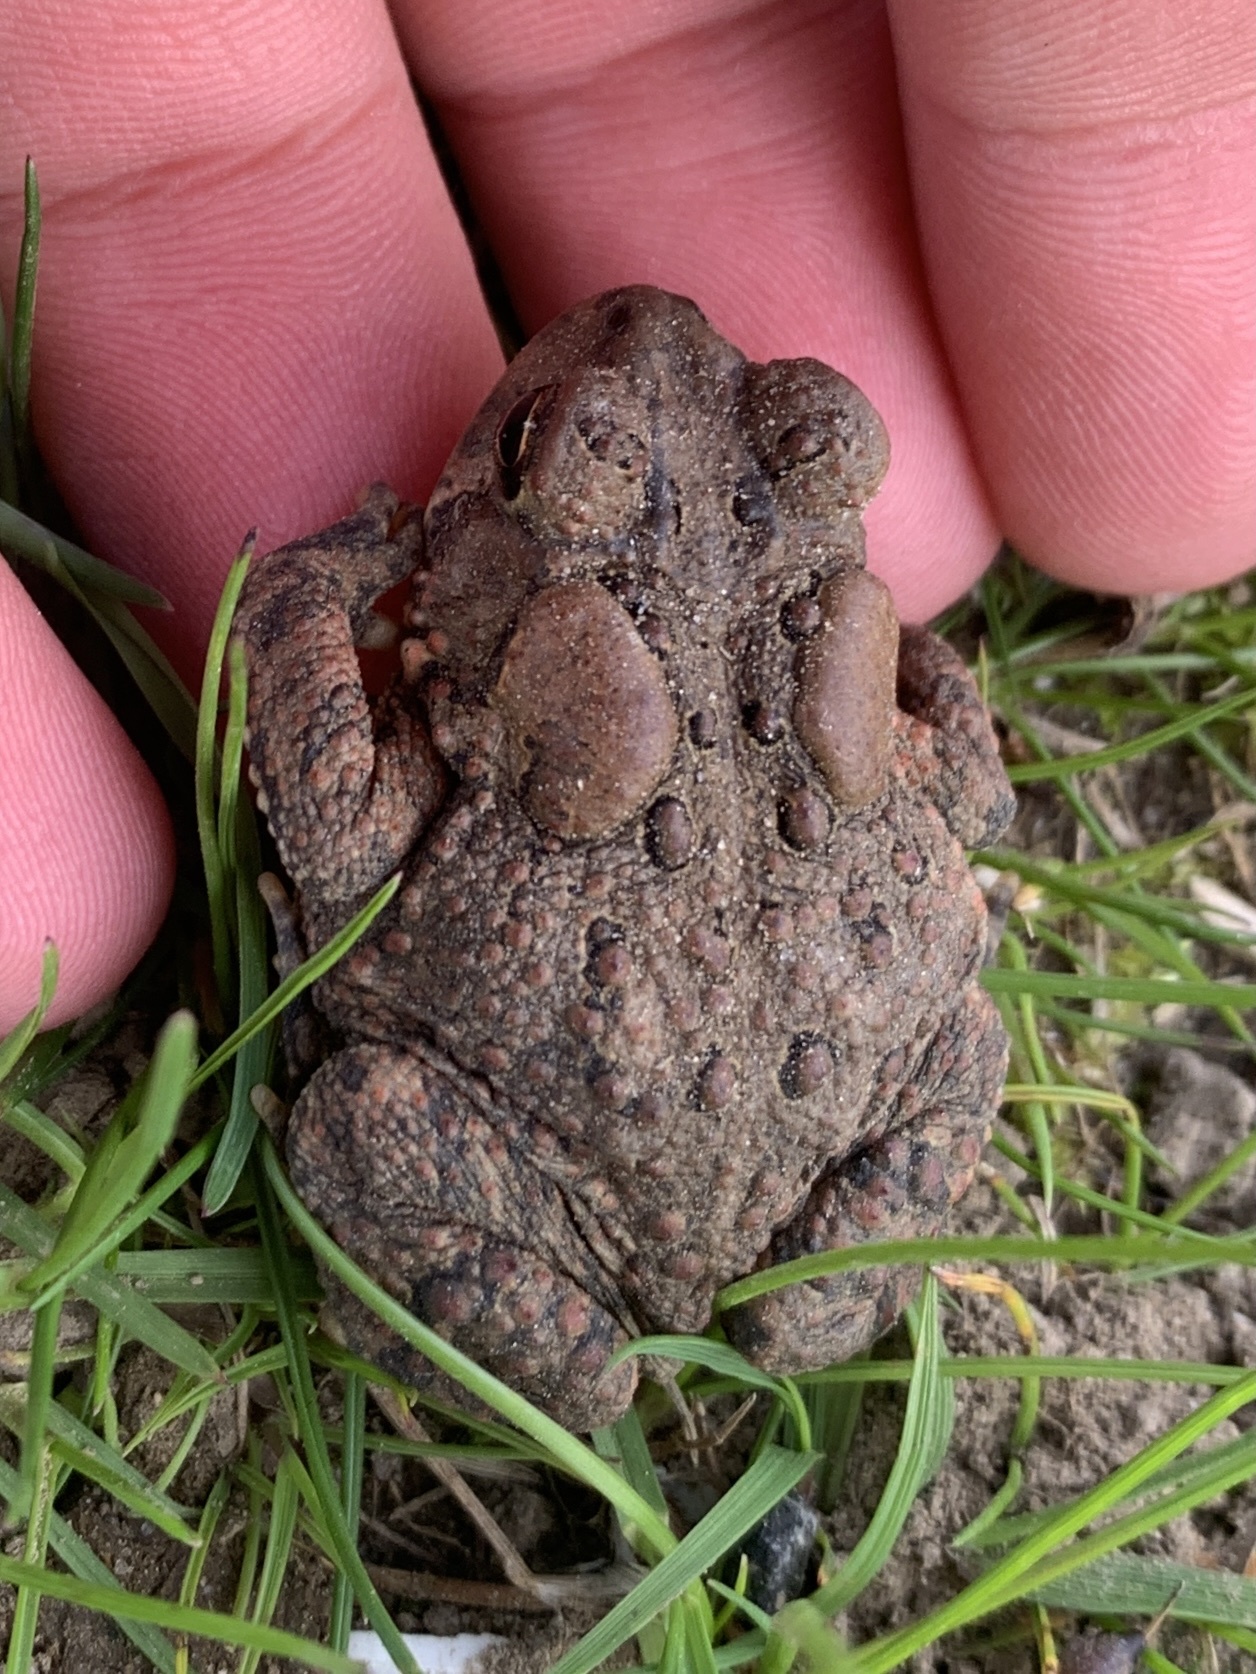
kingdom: Animalia
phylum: Chordata
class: Amphibia
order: Anura
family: Bufonidae
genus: Anaxyrus
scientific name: Anaxyrus americanus
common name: American toad
